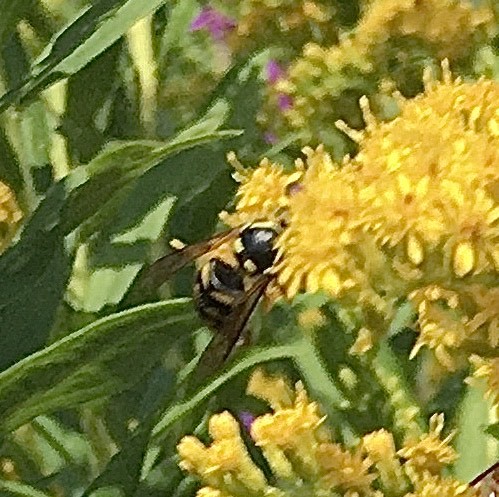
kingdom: Animalia
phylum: Arthropoda
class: Insecta
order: Hymenoptera
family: Vespidae
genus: Dolichovespula
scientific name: Dolichovespula arenaria
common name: Aerial yellowjacket
